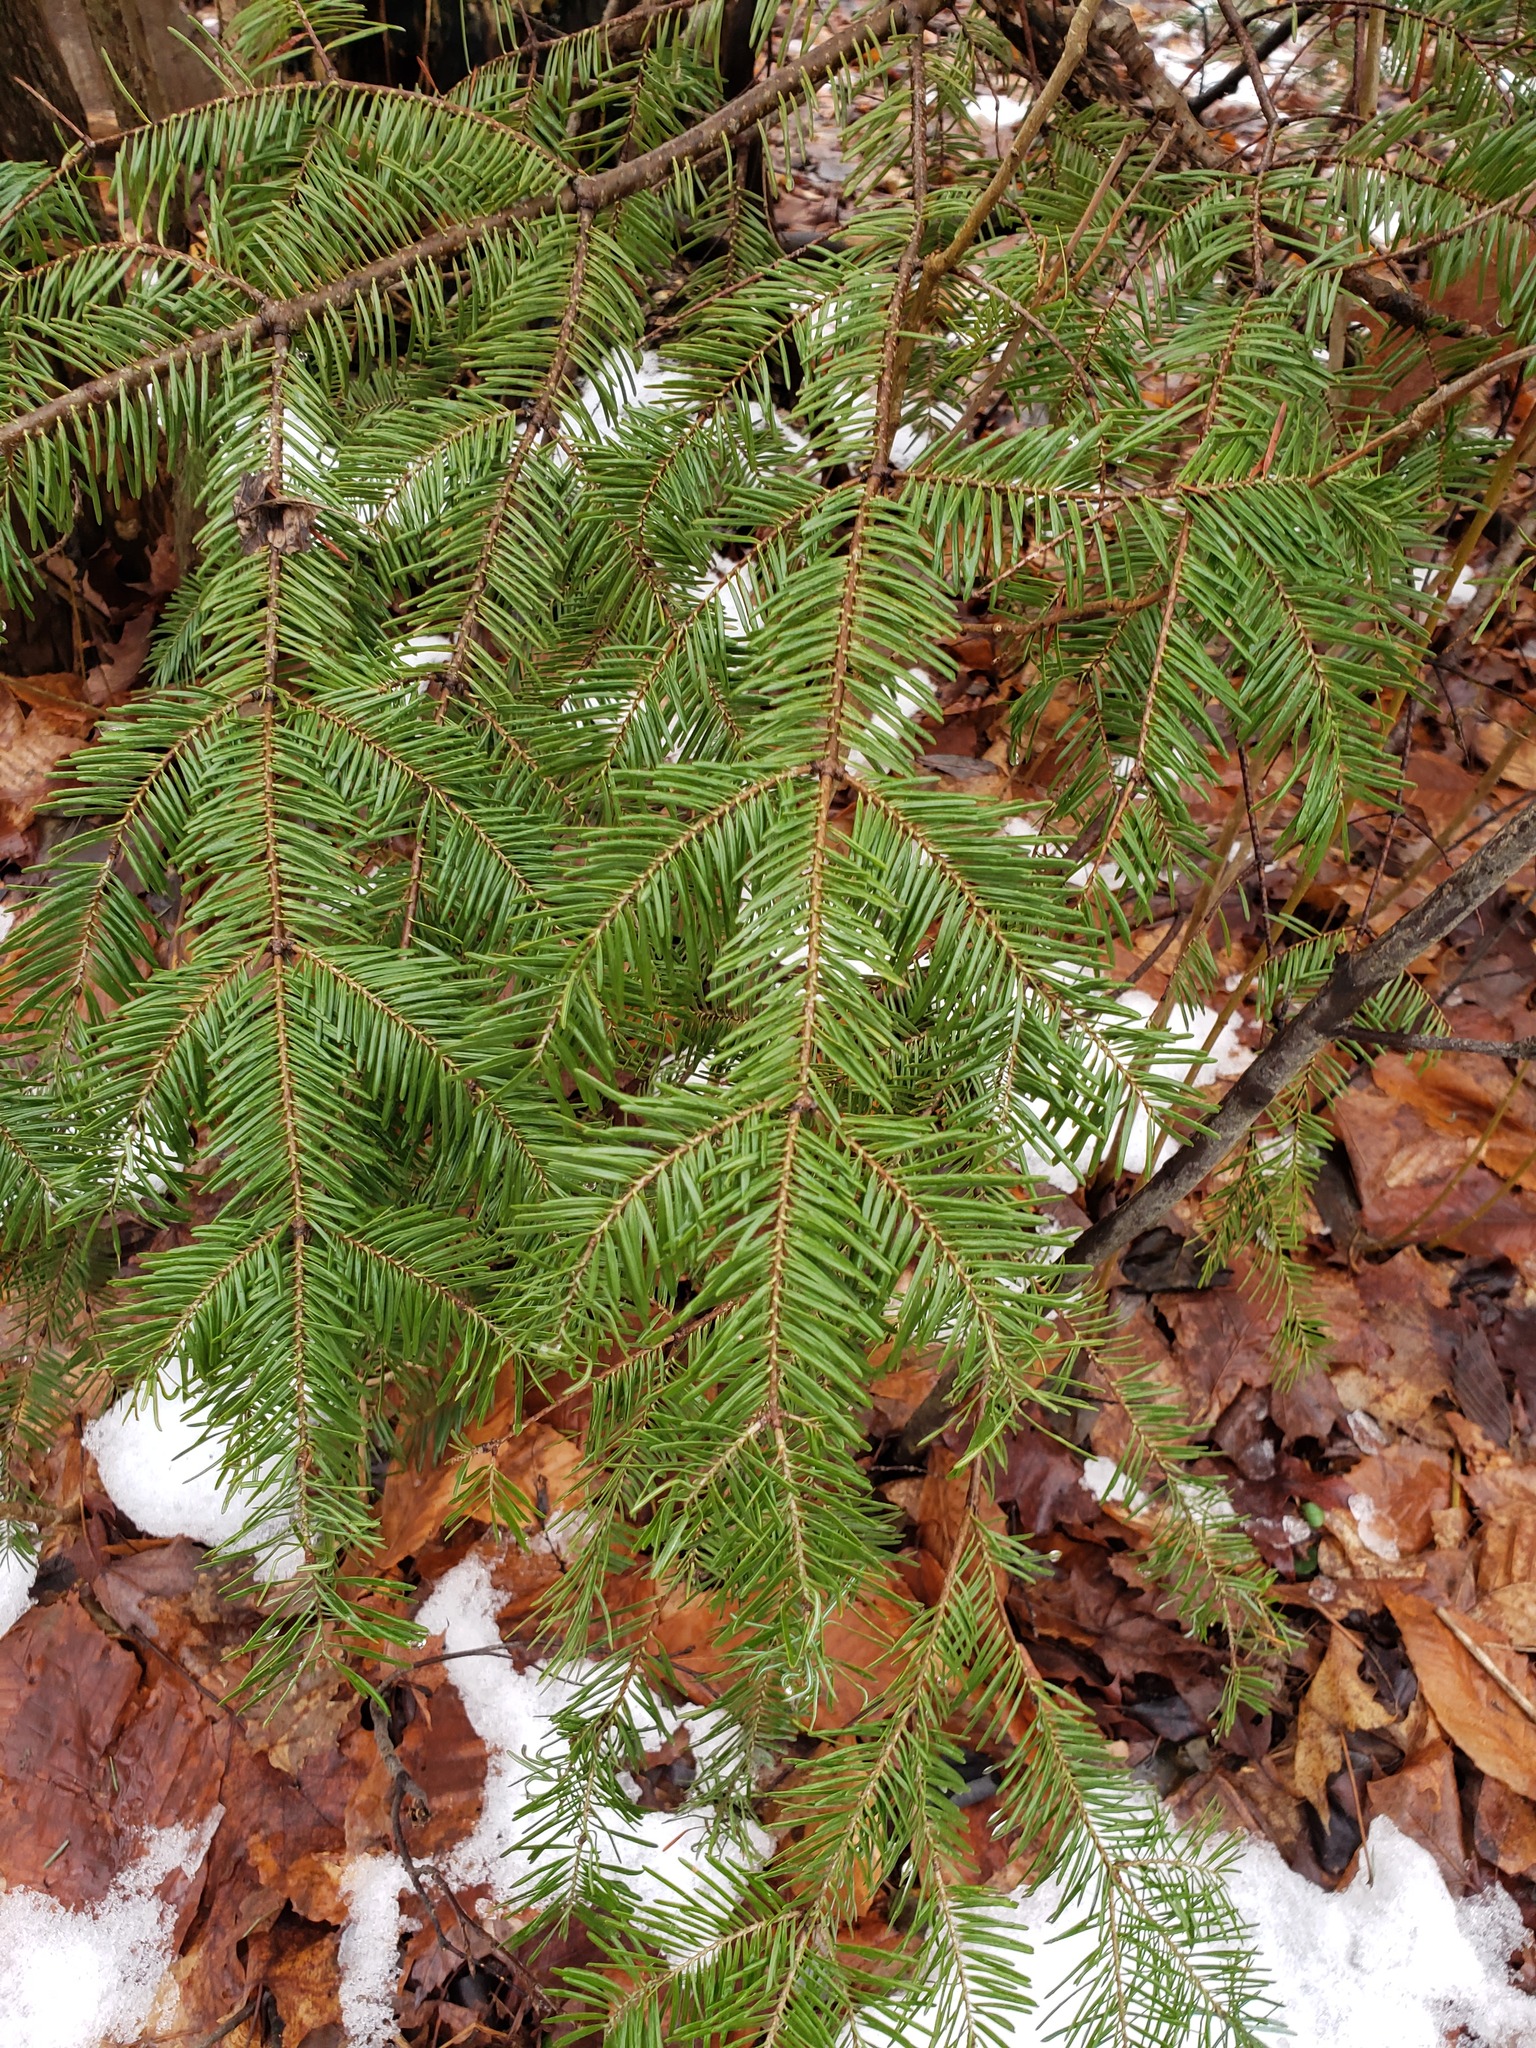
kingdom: Plantae
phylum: Tracheophyta
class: Pinopsida
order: Pinales
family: Pinaceae
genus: Abies
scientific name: Abies balsamea
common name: Balsam fir
